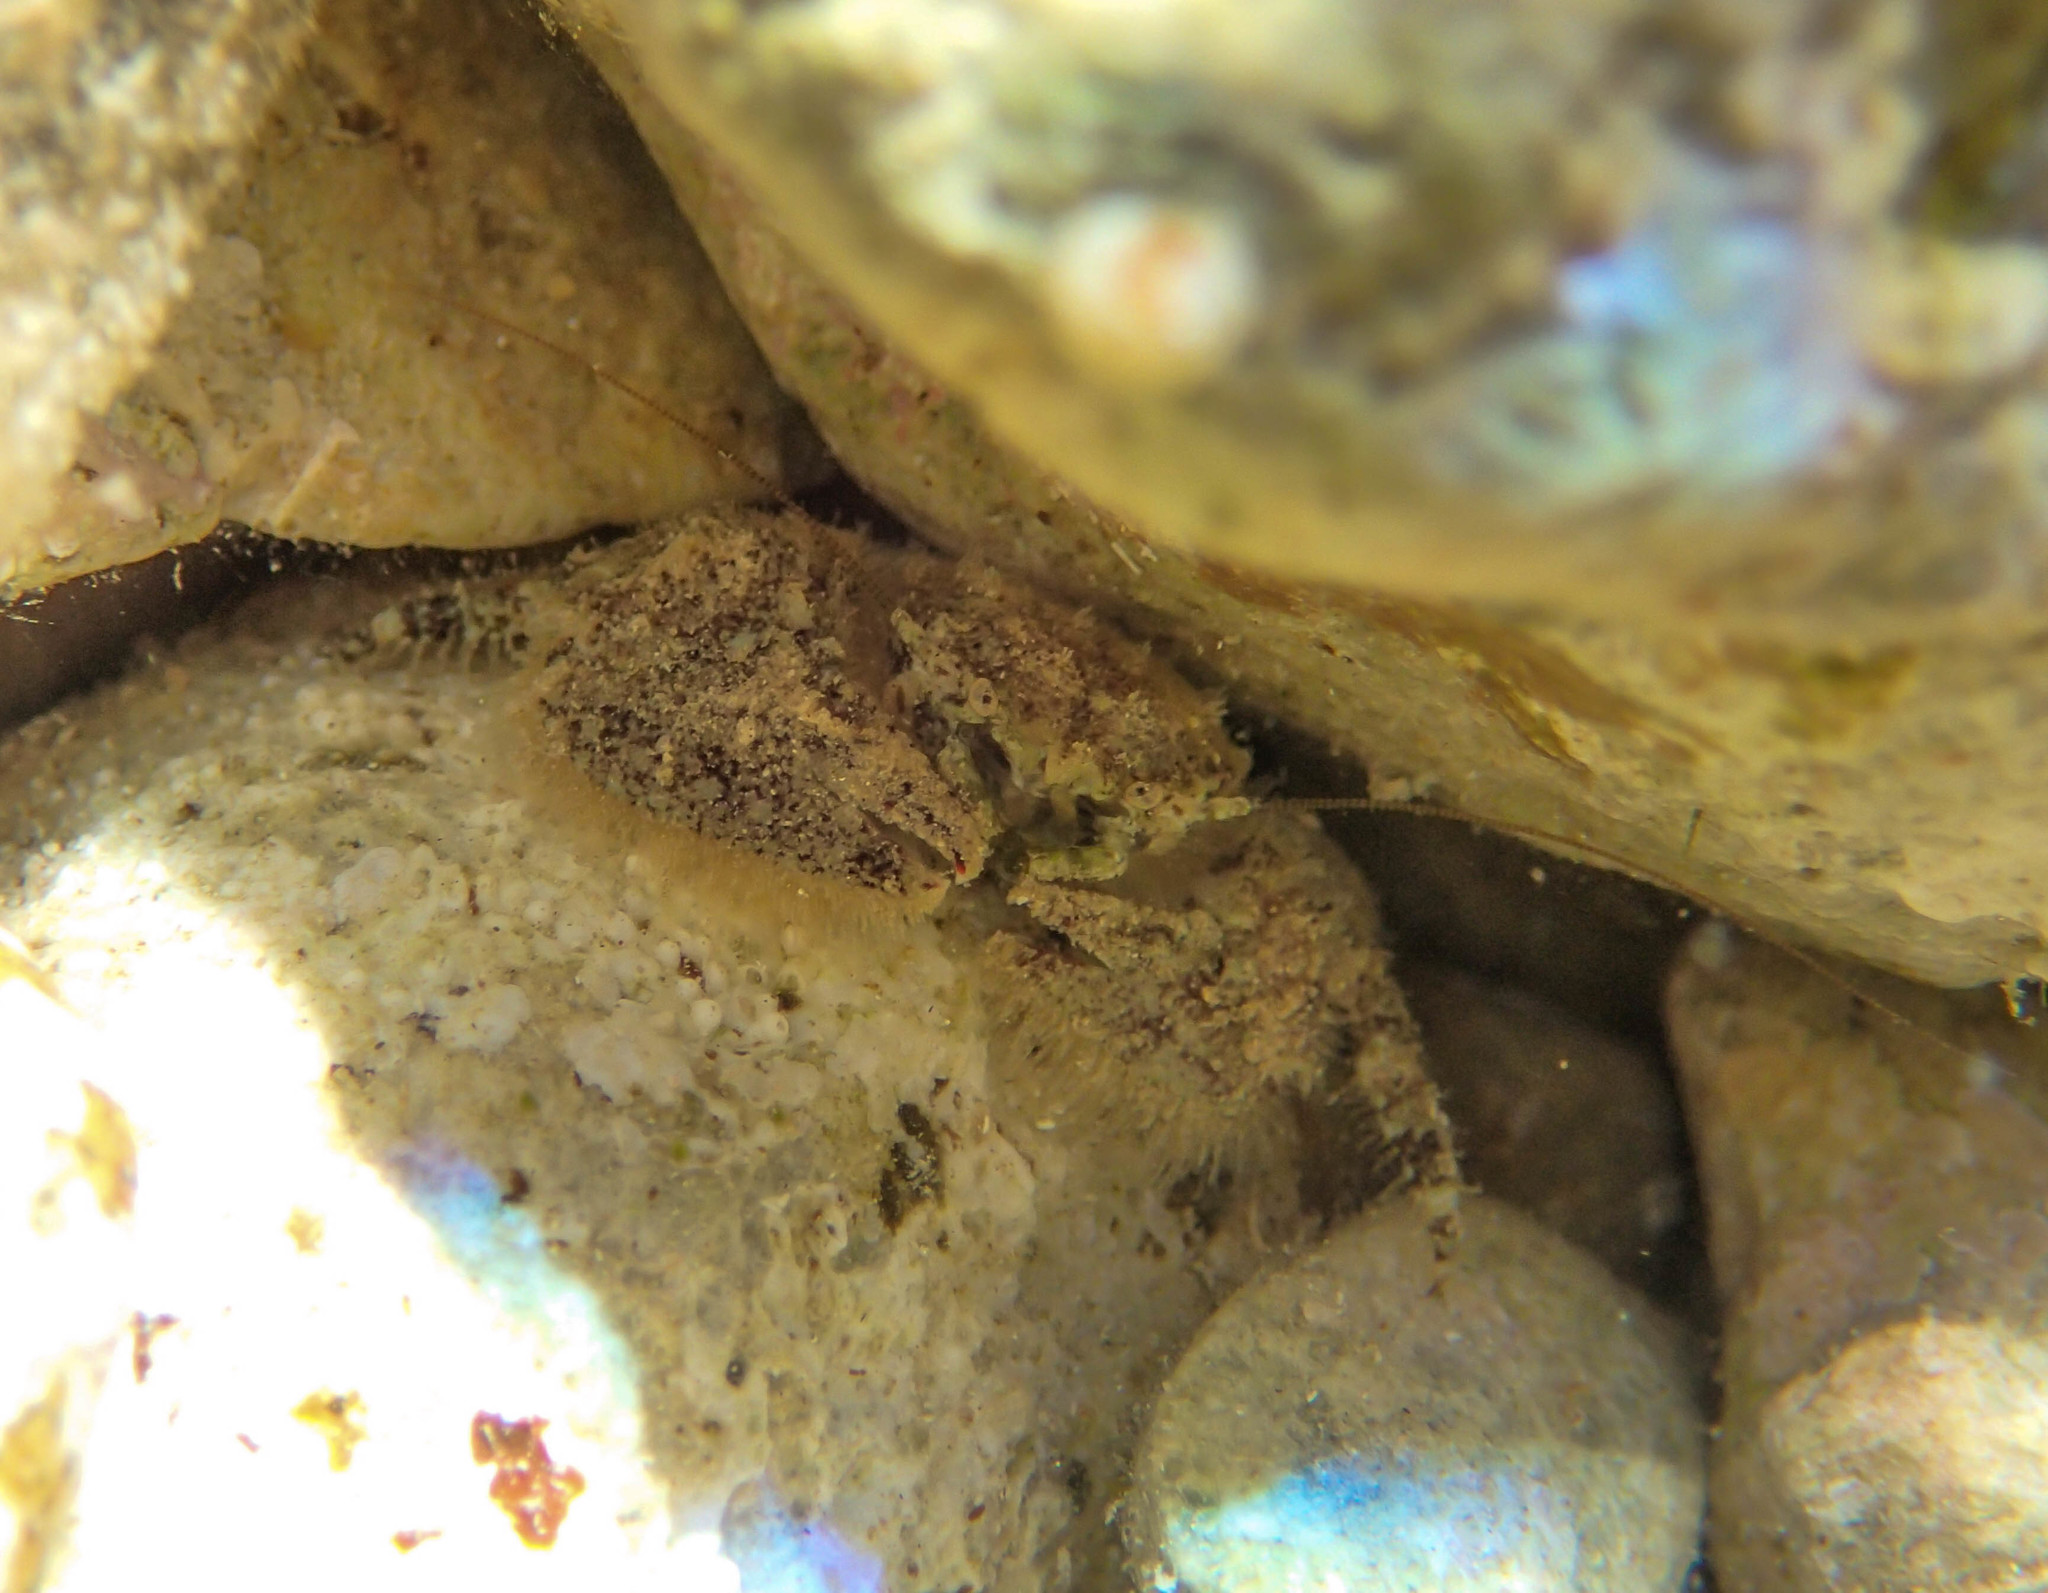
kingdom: Animalia
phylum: Arthropoda
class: Malacostraca
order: Decapoda
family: Porcellanidae
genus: Porcellana
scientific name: Porcellana platycheles
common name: Porcelain crab
